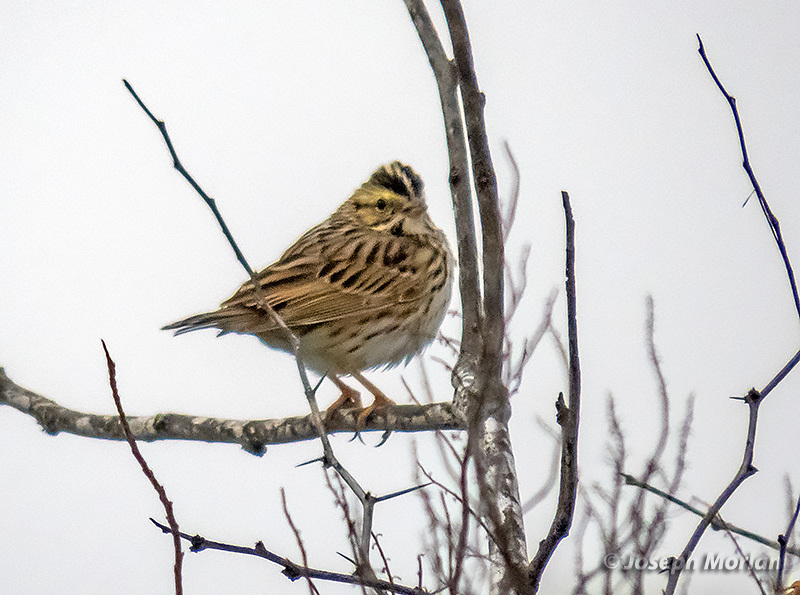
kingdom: Animalia
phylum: Chordata
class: Aves
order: Passeriformes
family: Passerellidae
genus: Passerculus
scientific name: Passerculus sandwichensis
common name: Savannah sparrow
